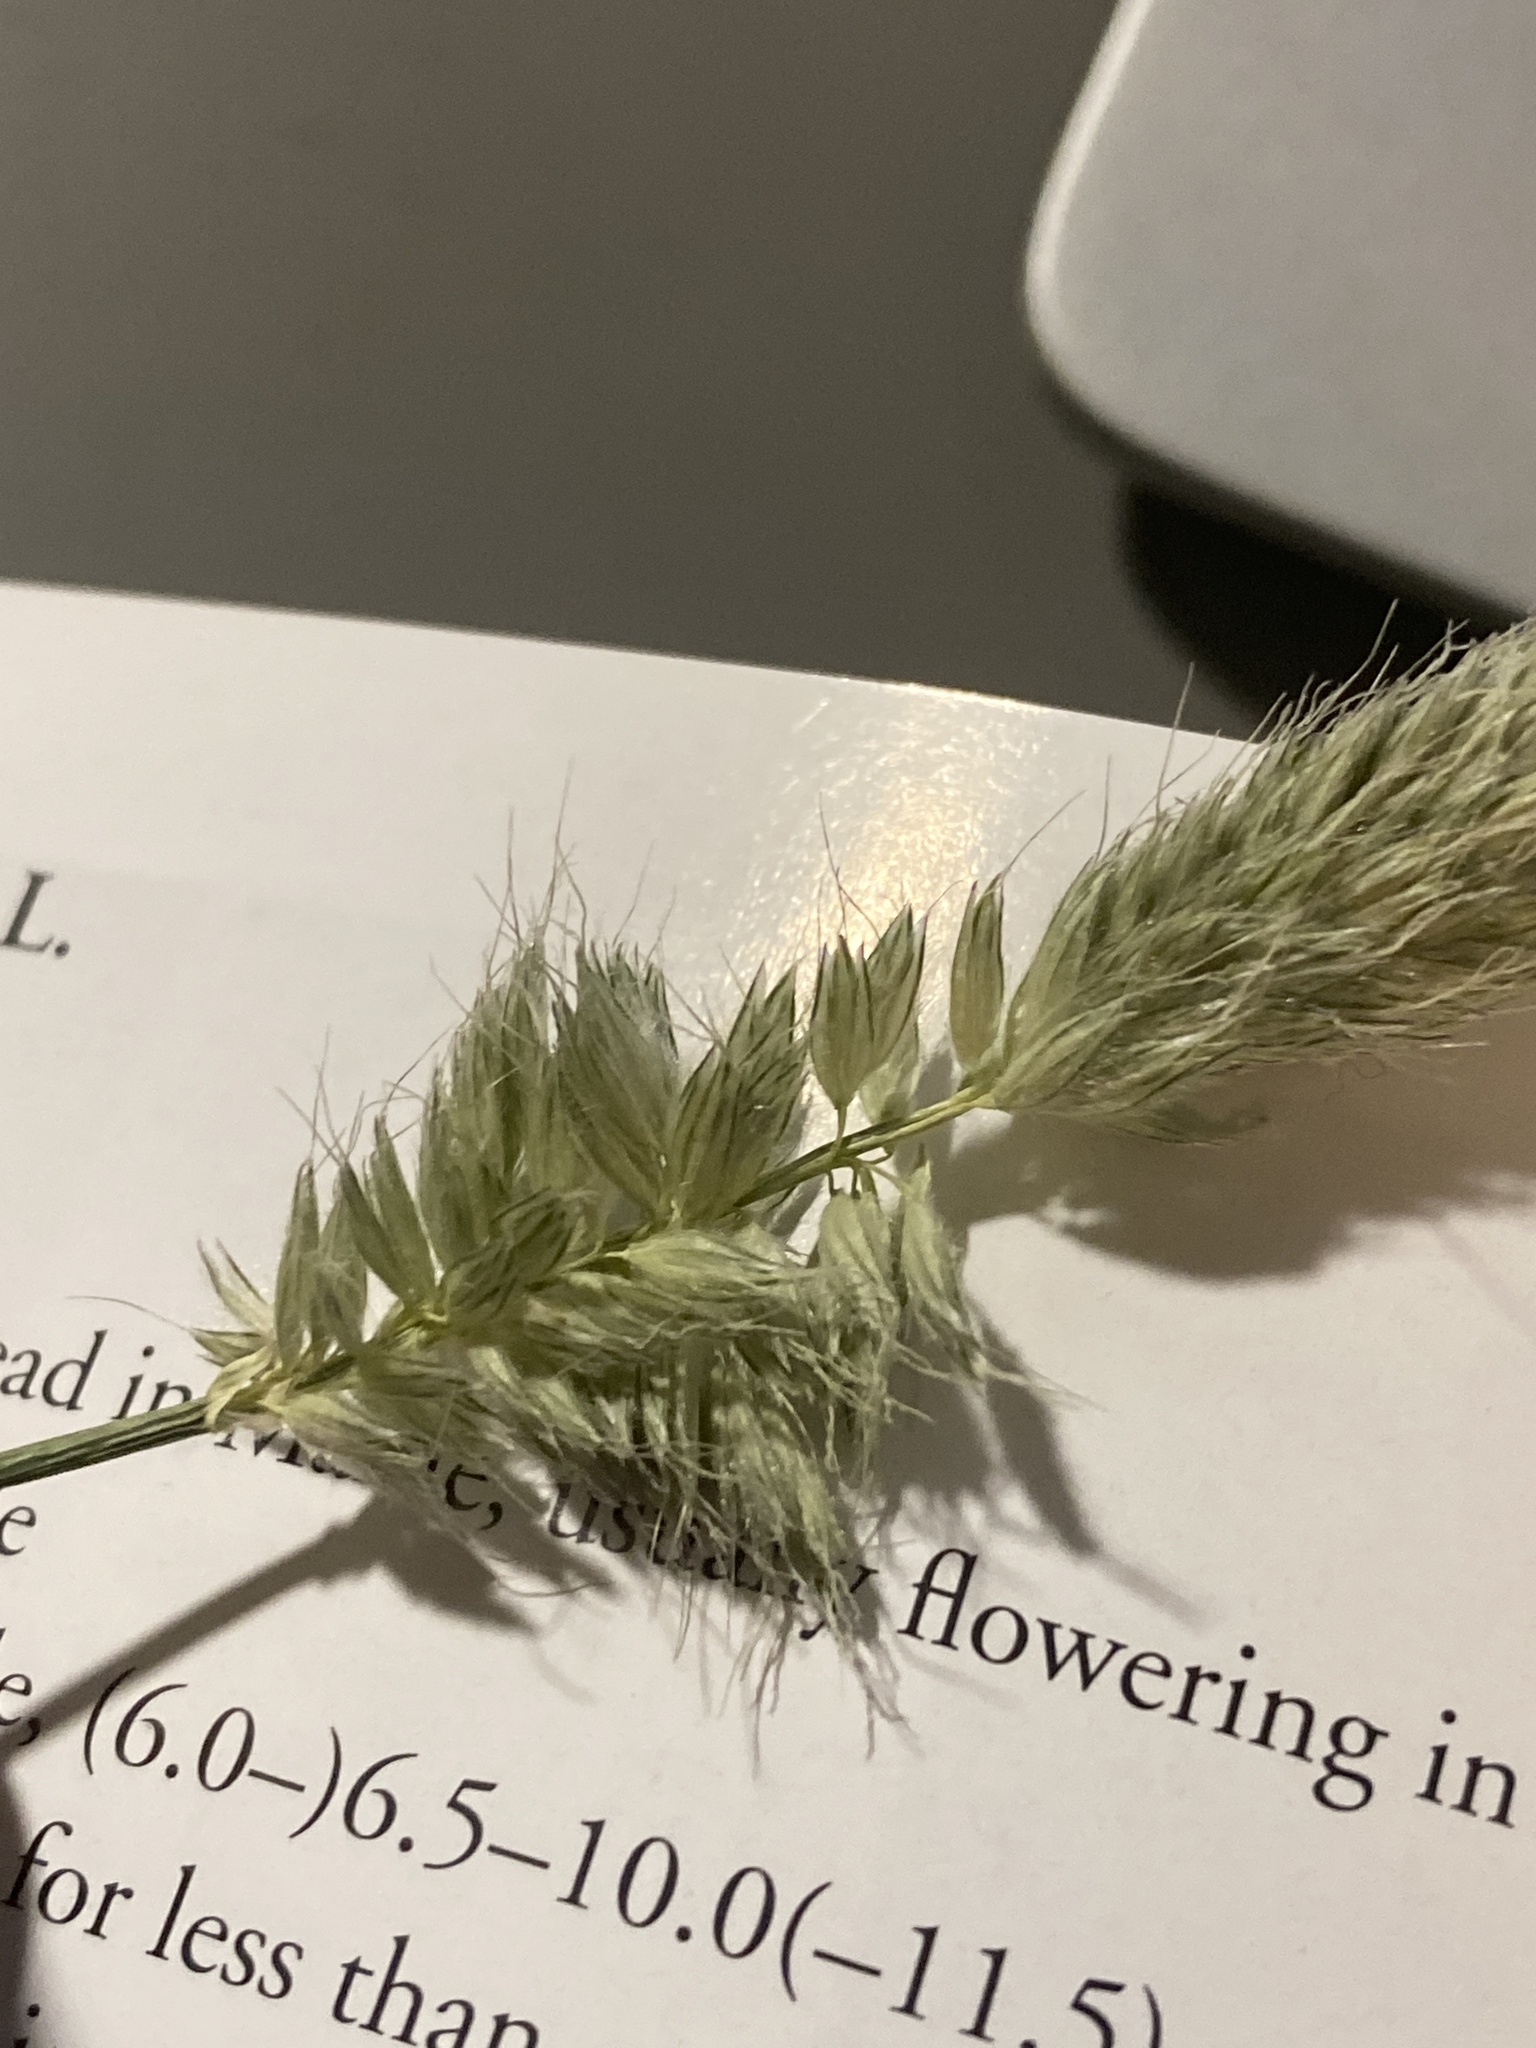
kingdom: Plantae
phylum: Tracheophyta
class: Liliopsida
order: Poales
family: Poaceae
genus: Alopecurus
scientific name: Alopecurus pratensis
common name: Meadow foxtail
